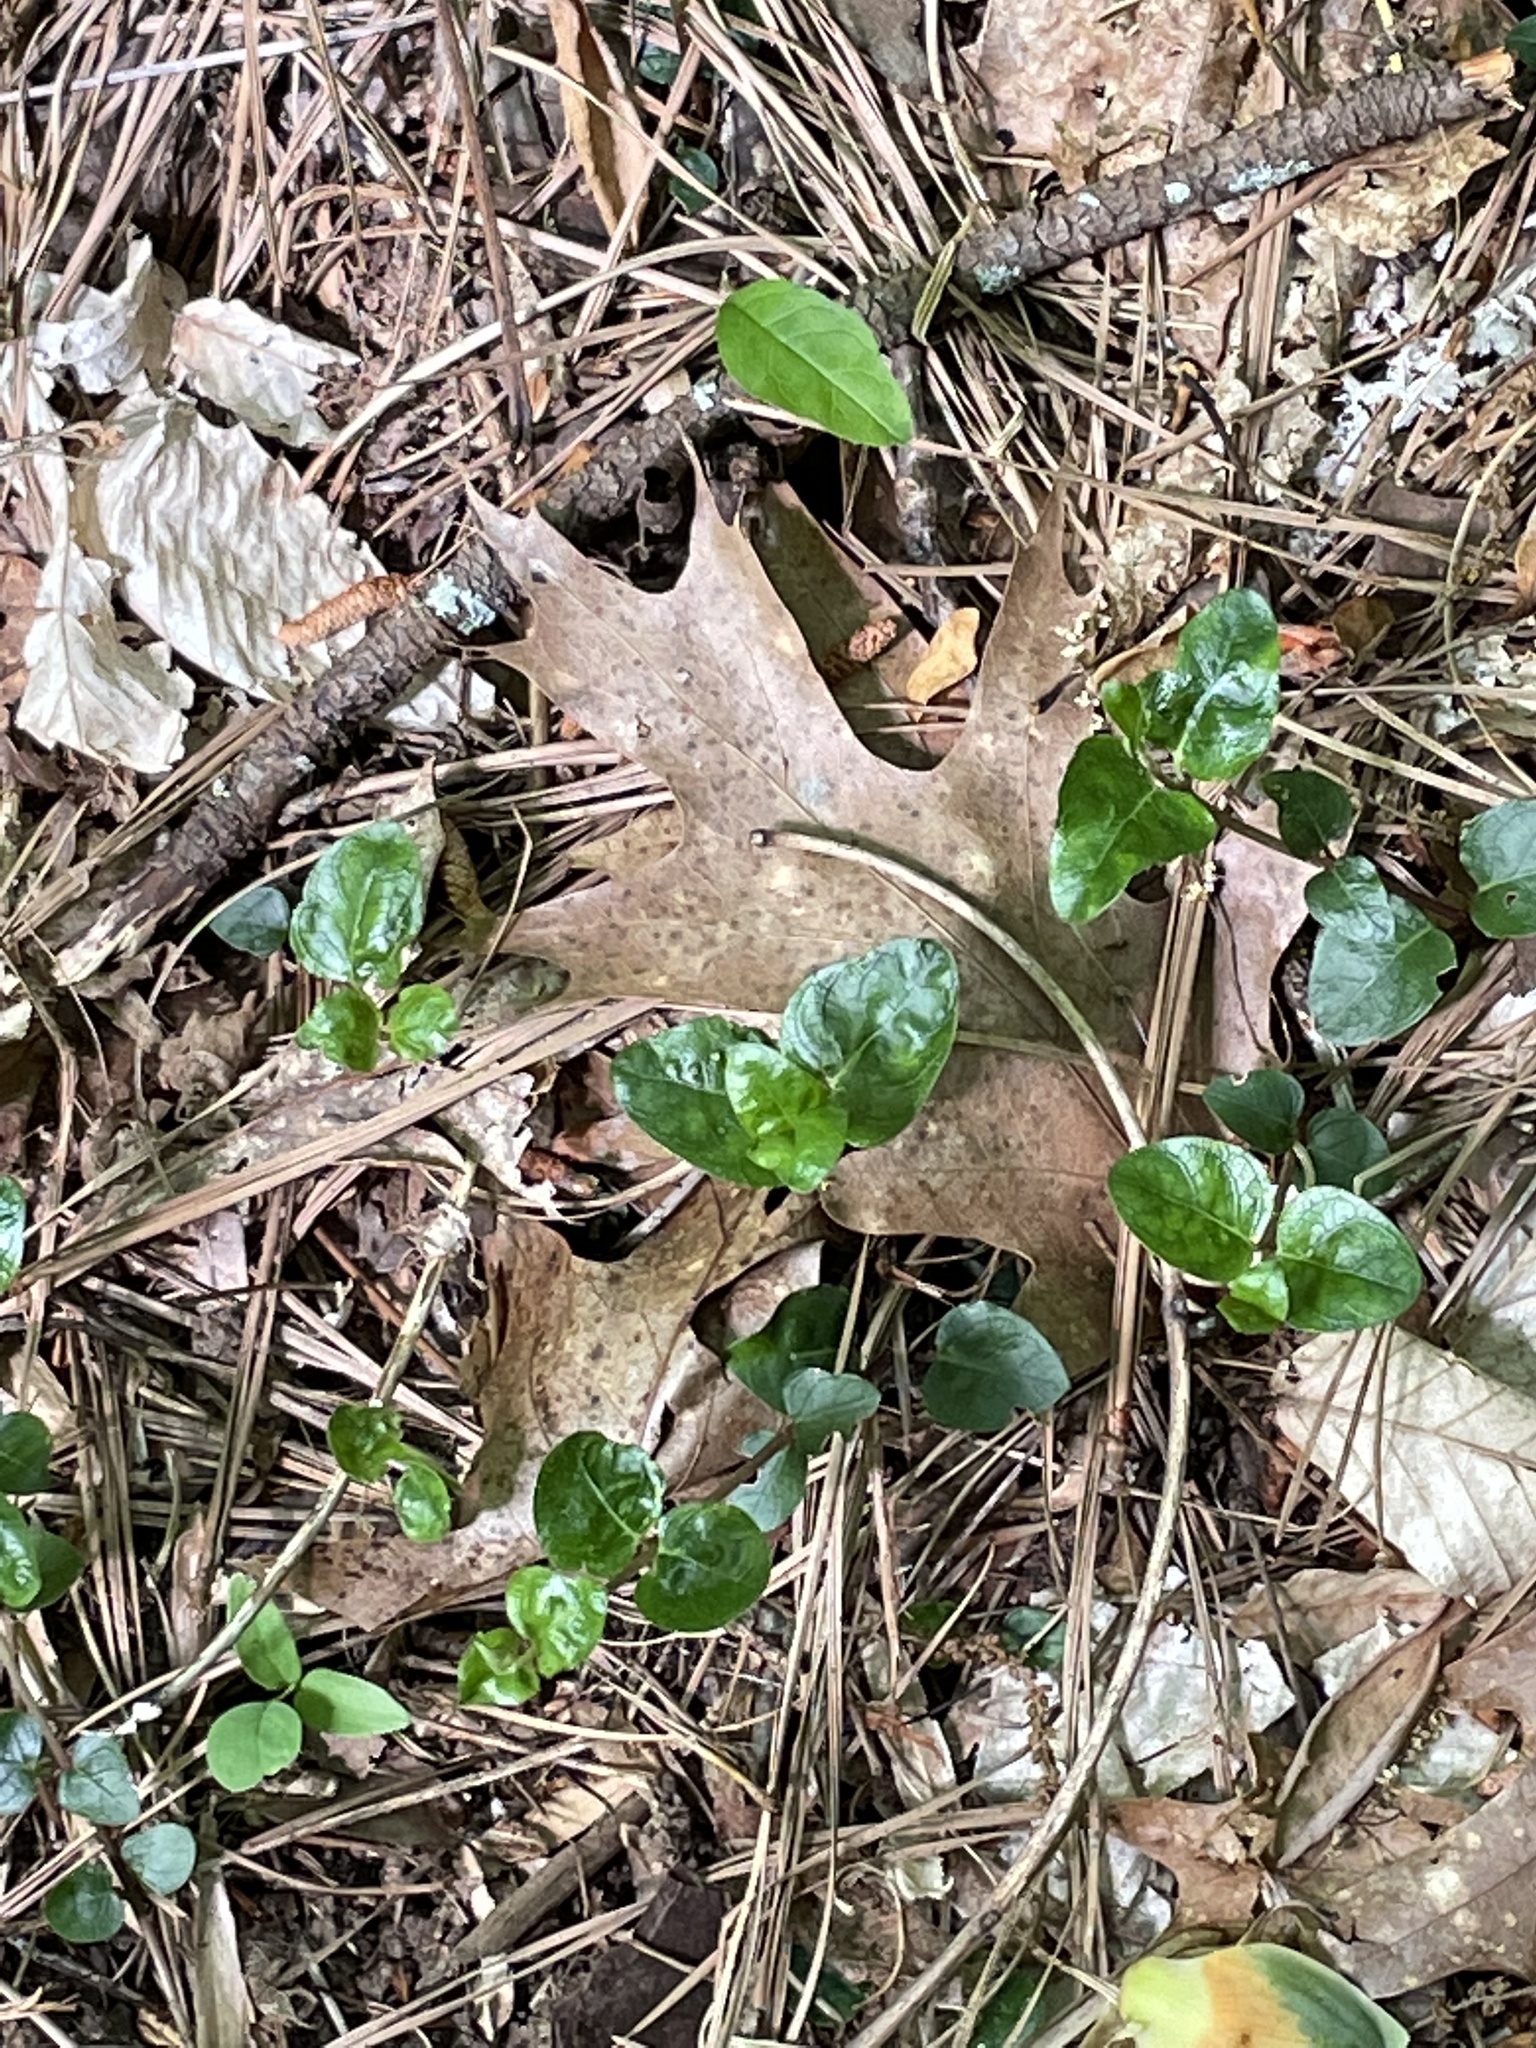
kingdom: Plantae
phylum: Tracheophyta
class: Magnoliopsida
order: Gentianales
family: Rubiaceae
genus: Mitchella
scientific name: Mitchella repens
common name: Partridge-berry
